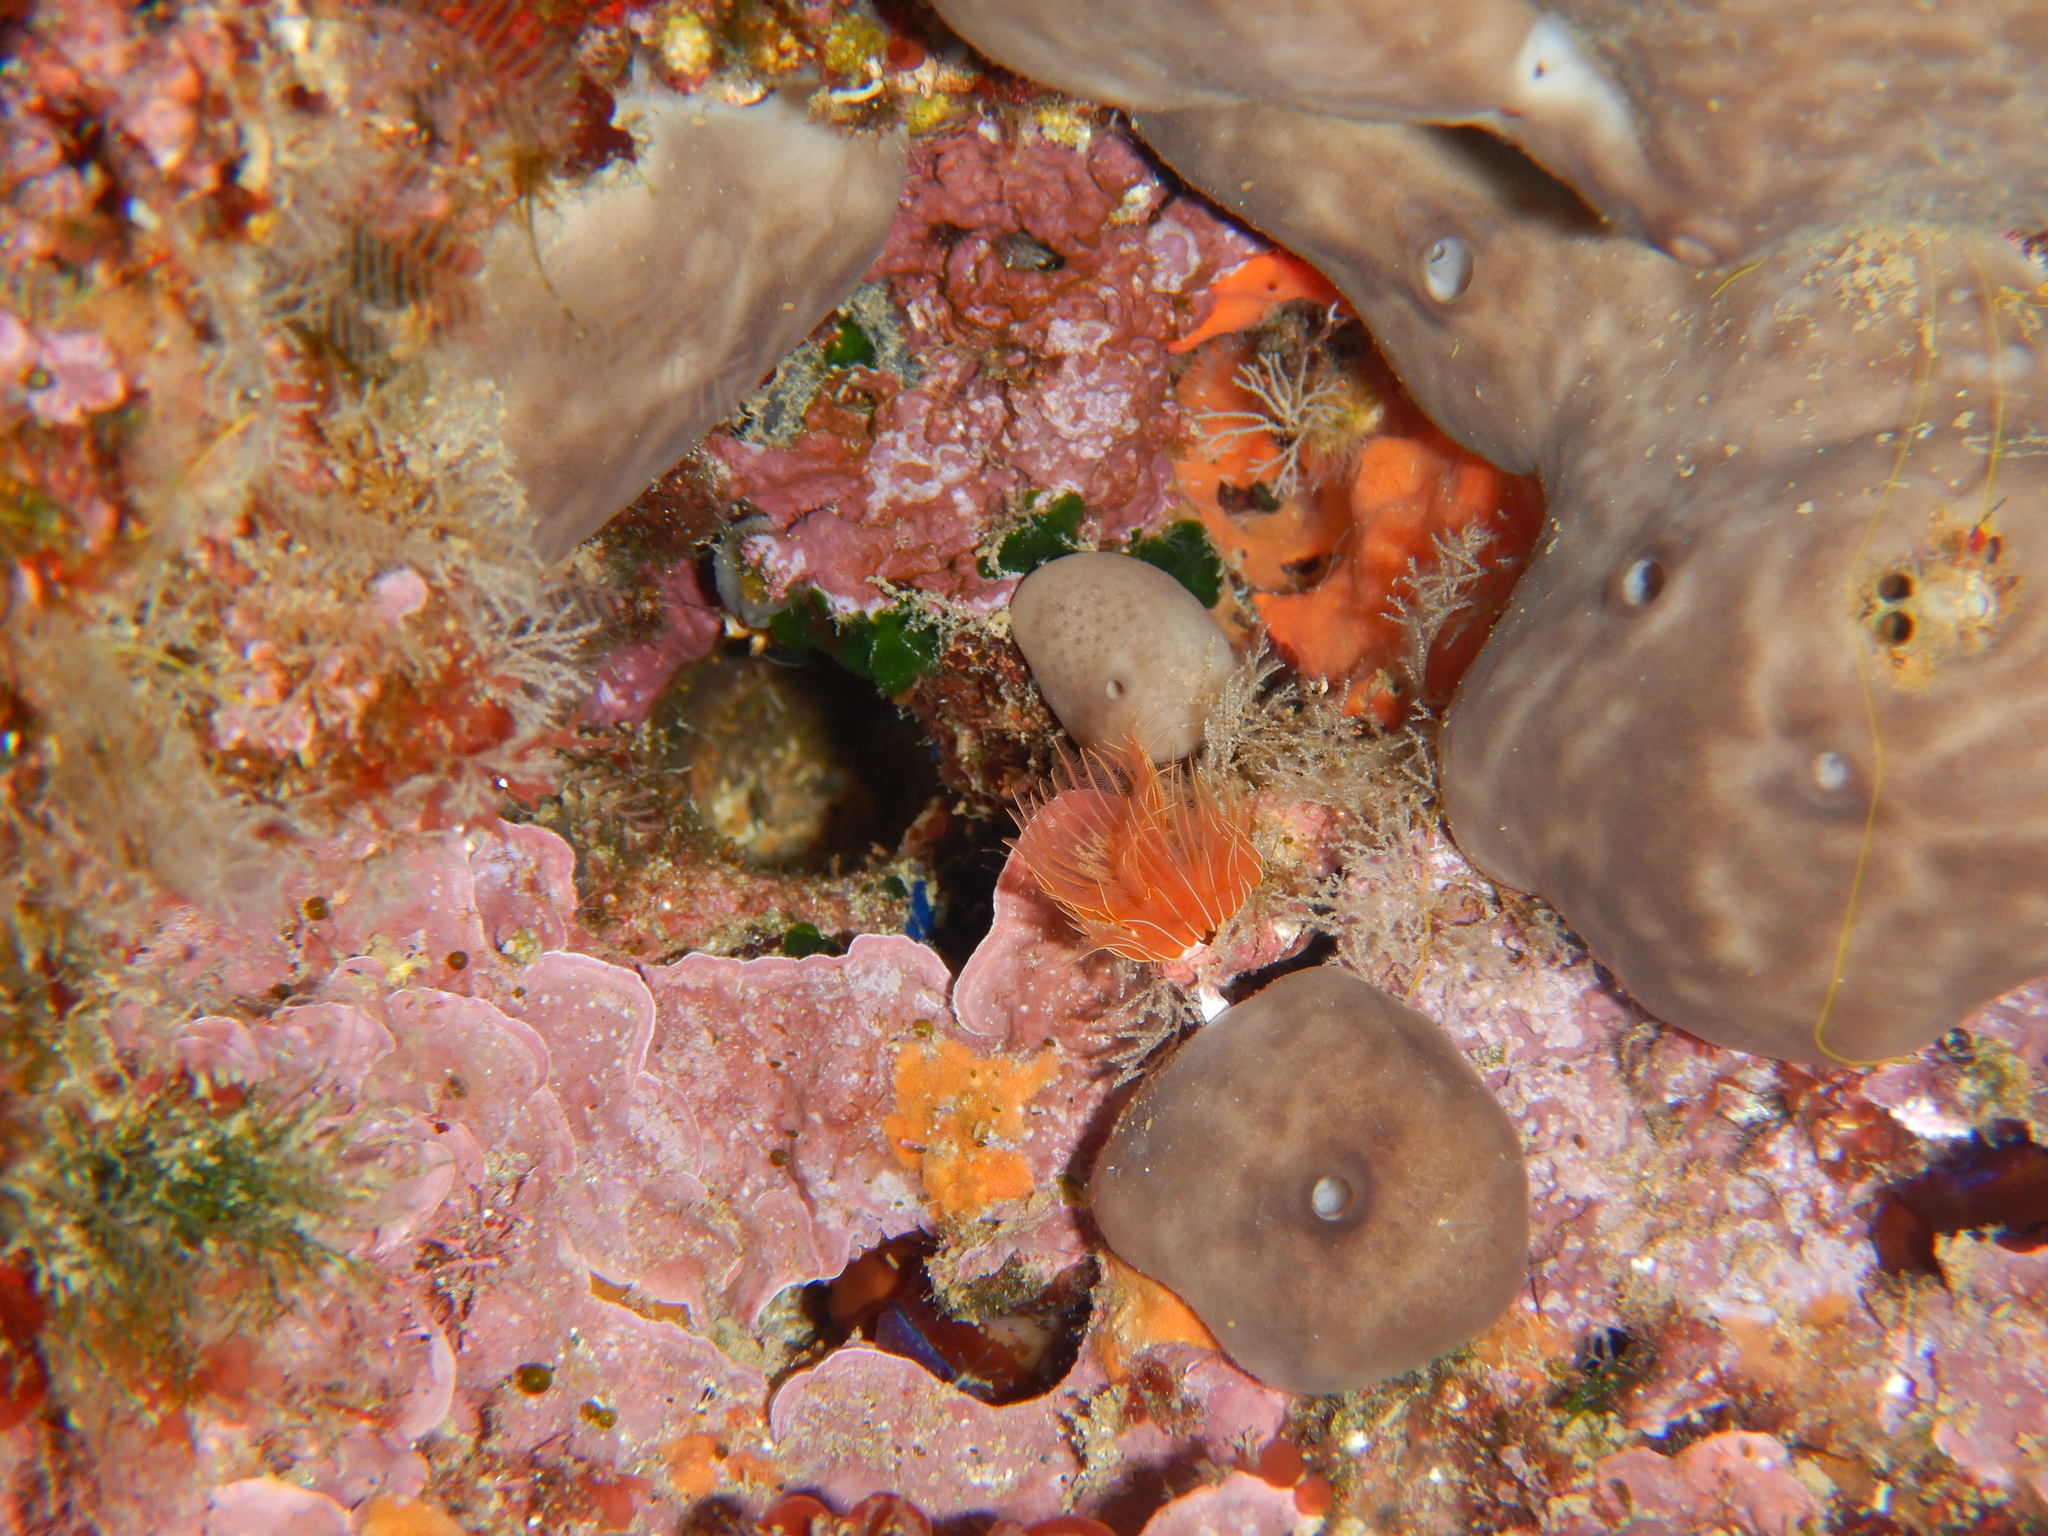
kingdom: Animalia
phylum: Annelida
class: Polychaeta
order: Sabellida
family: Serpulidae
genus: Protula
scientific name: Protula tubularia
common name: Red-spotted horseshoe
